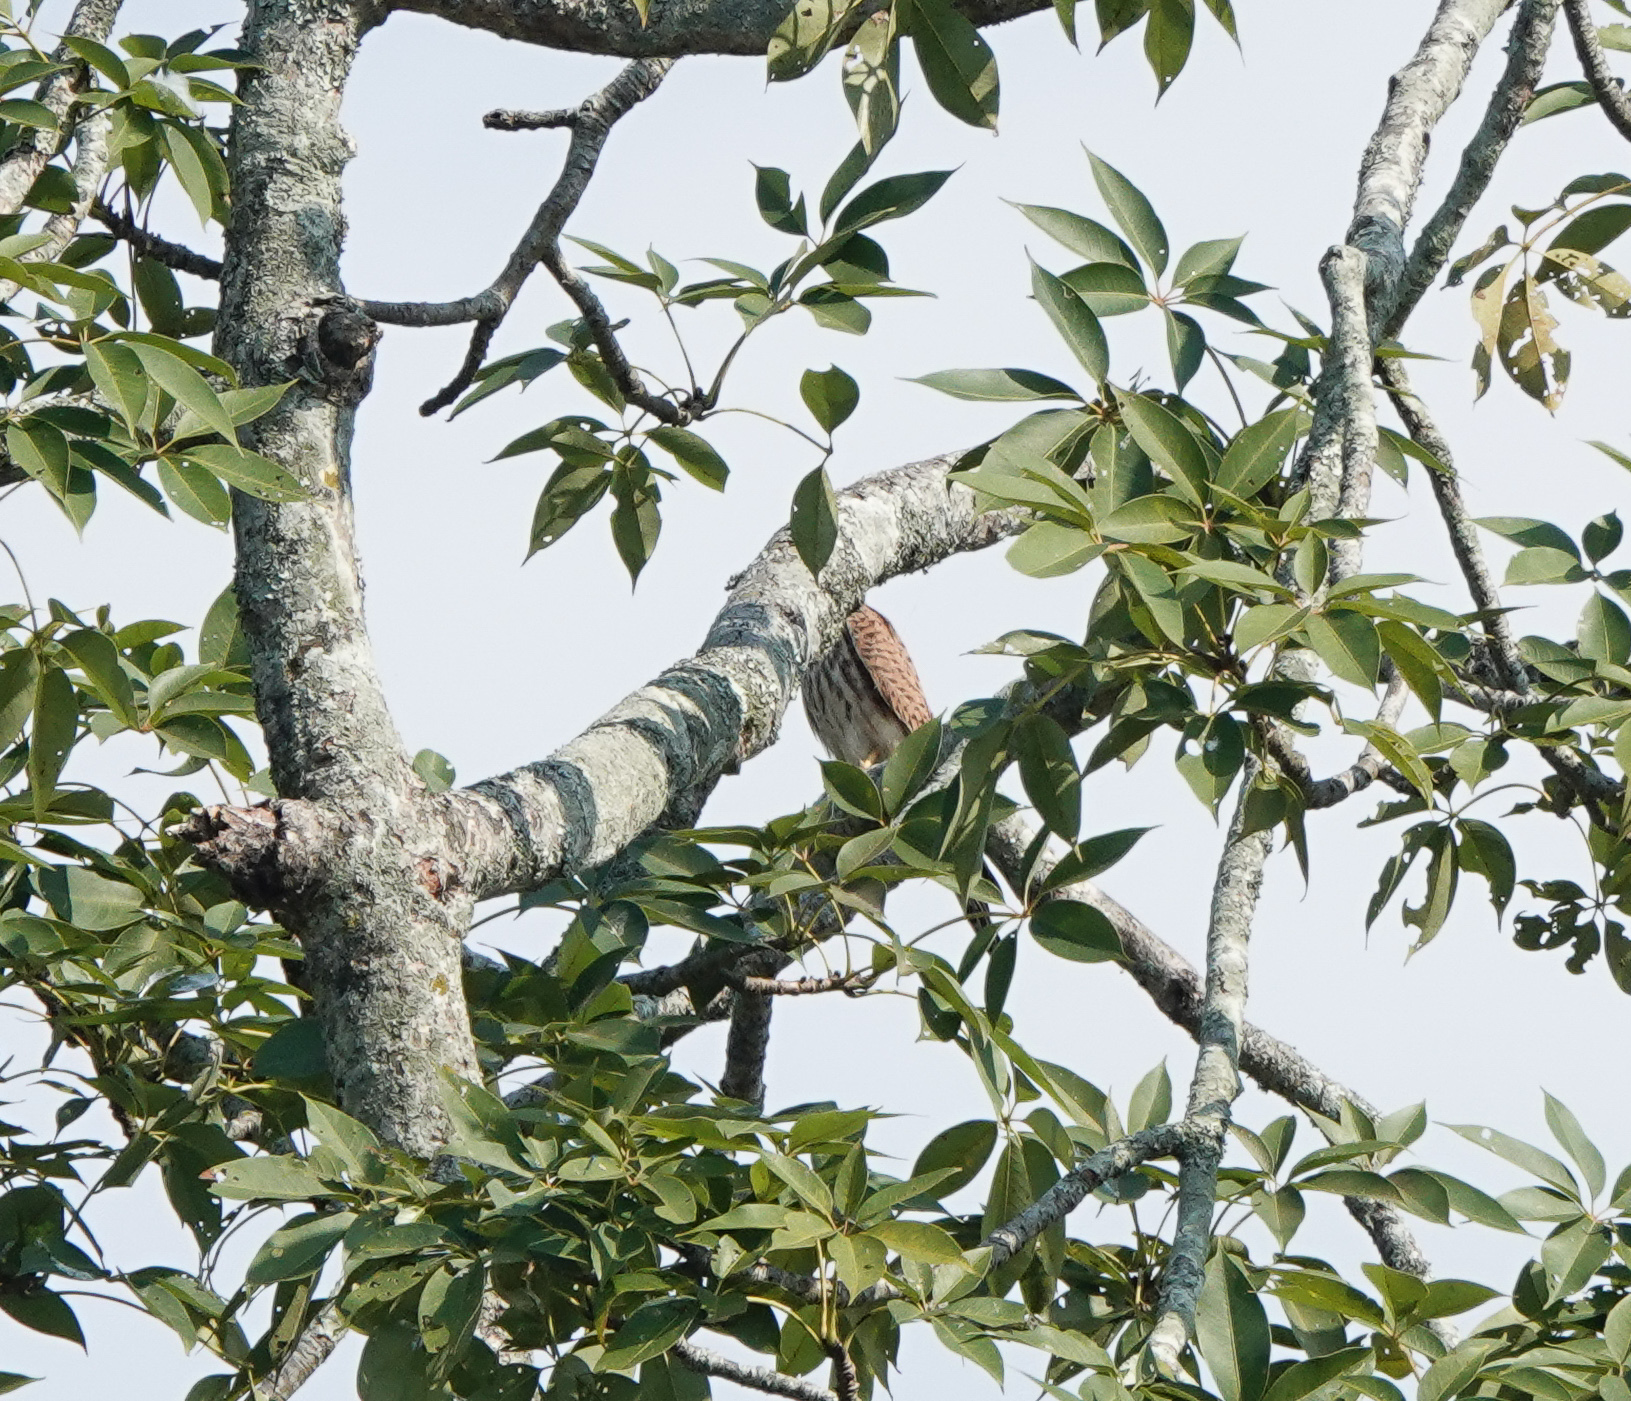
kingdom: Animalia
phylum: Chordata
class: Aves
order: Falconiformes
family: Falconidae
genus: Falco
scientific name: Falco tinnunculus
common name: Common kestrel
